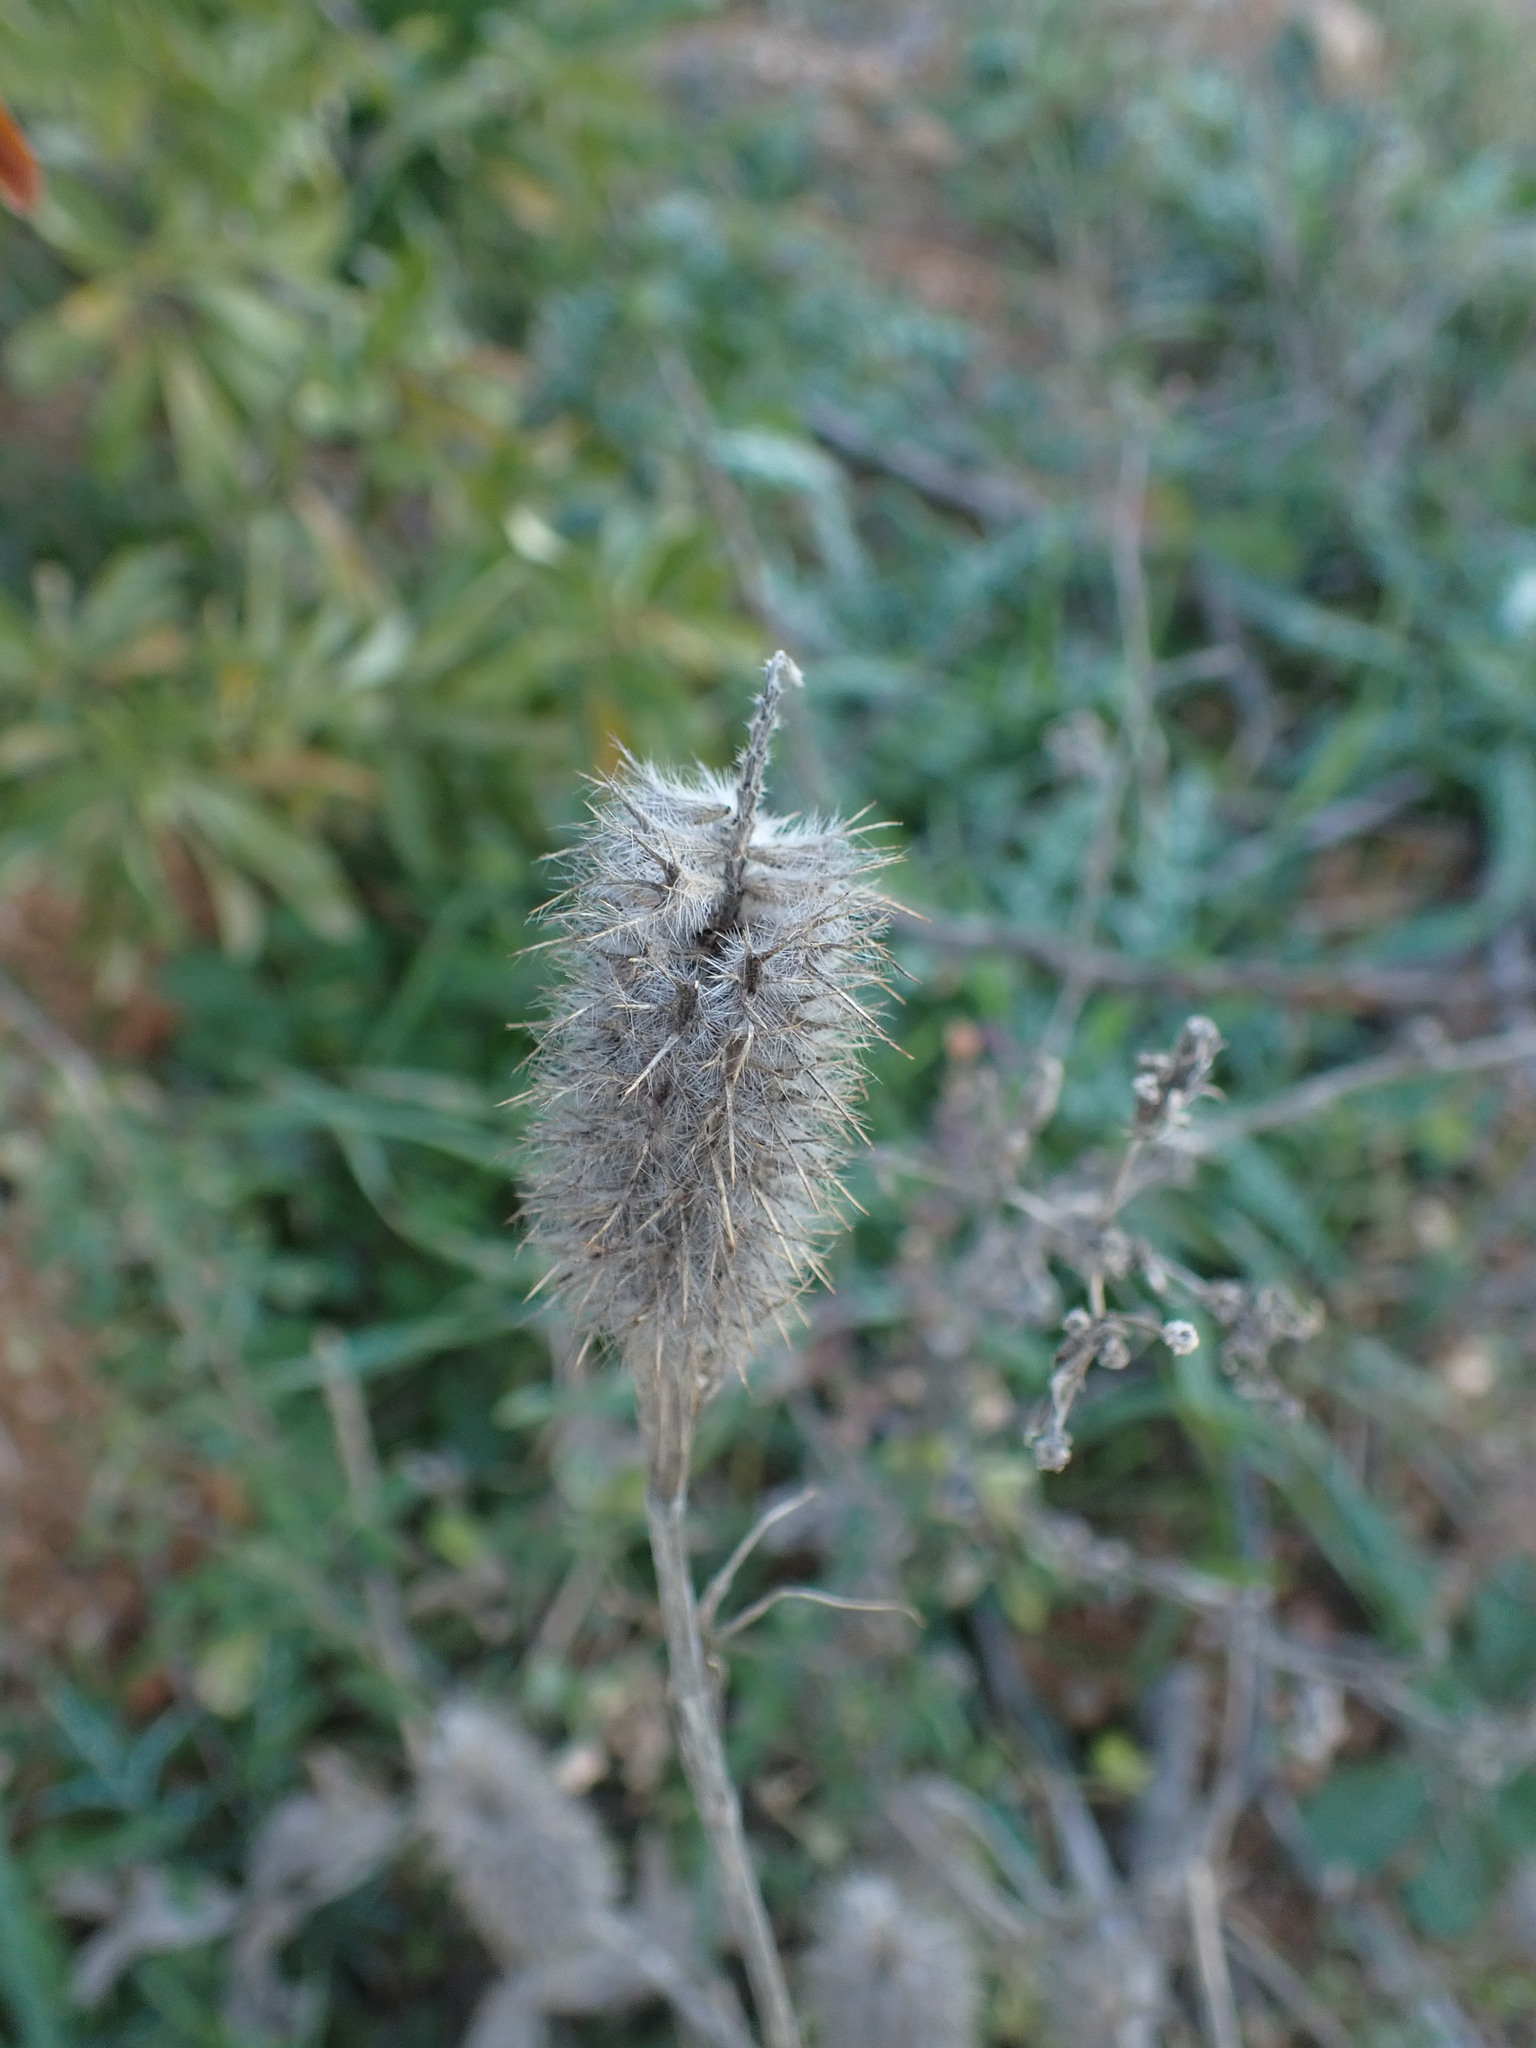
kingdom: Plantae
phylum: Tracheophyta
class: Magnoliopsida
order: Fabales
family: Fabaceae
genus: Trifolium
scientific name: Trifolium angustifolium
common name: Narrow clover
